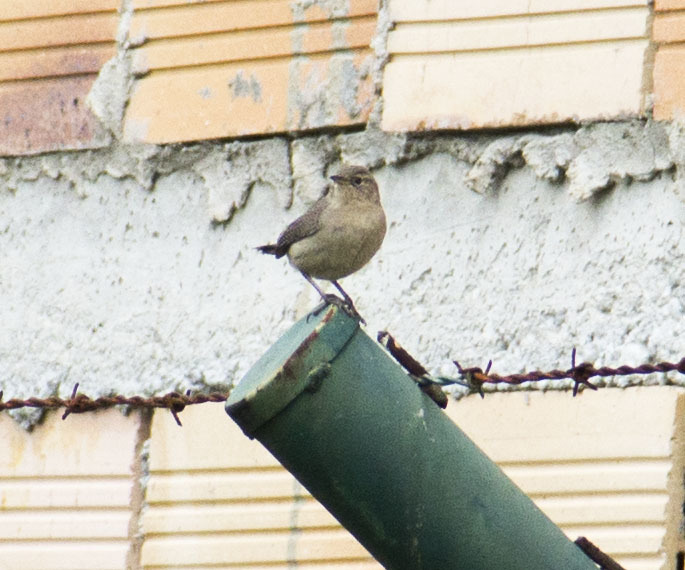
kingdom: Animalia
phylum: Chordata
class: Aves
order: Passeriformes
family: Troglodytidae
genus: Troglodytes
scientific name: Troglodytes aedon
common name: House wren
